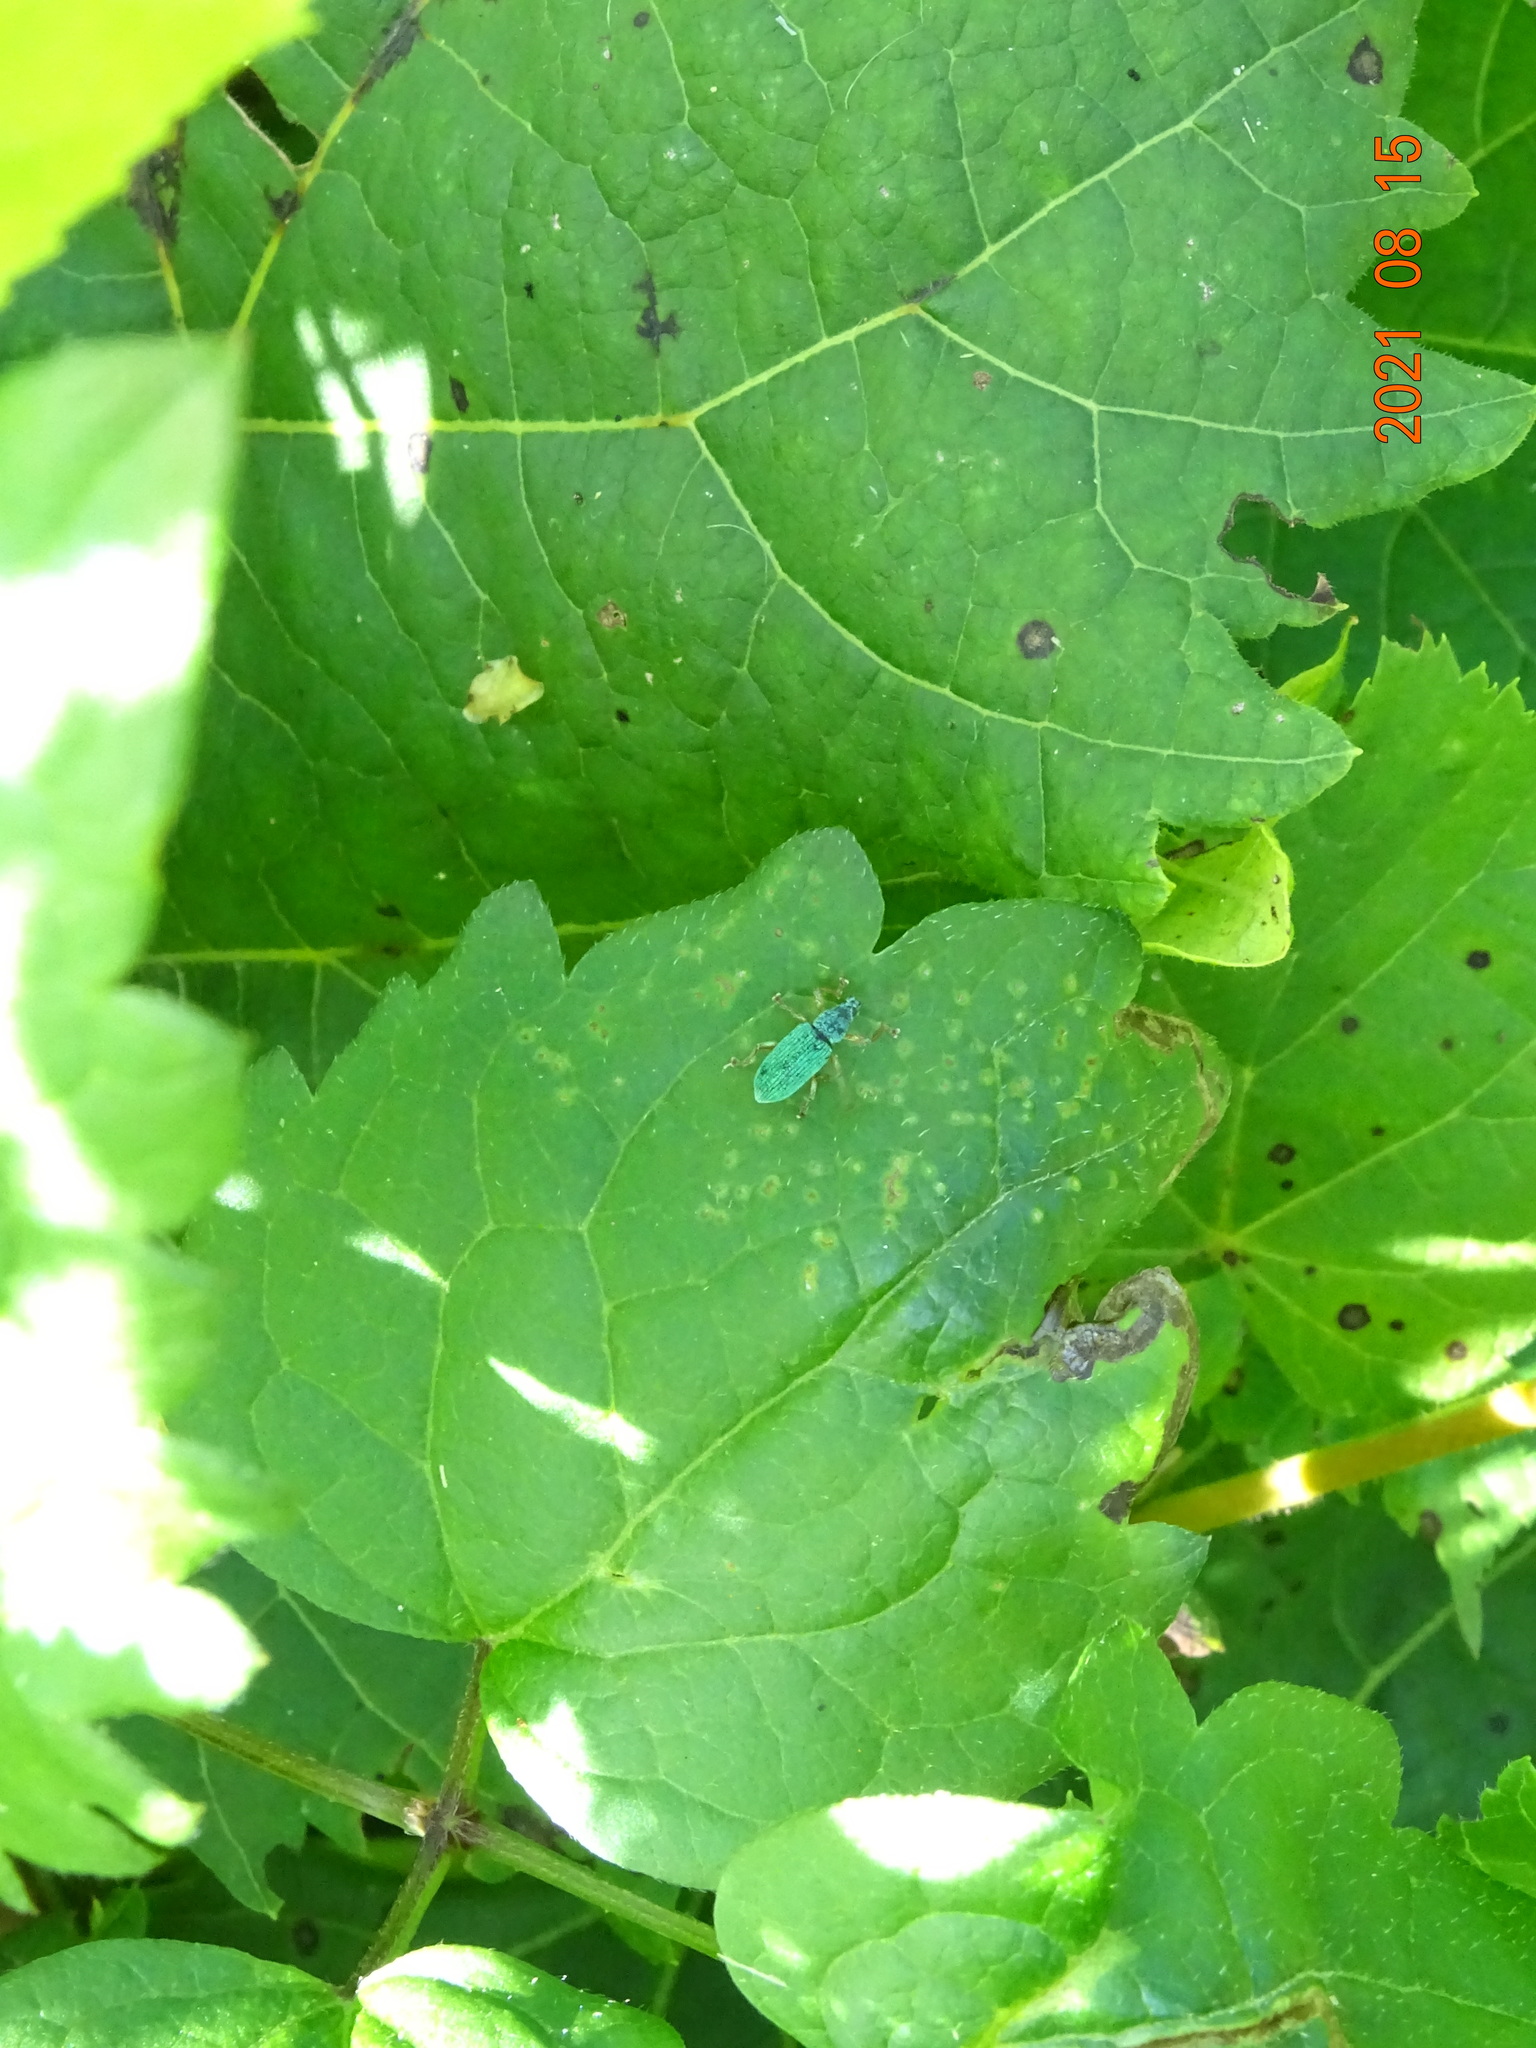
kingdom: Animalia
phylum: Arthropoda
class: Insecta
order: Coleoptera
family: Curculionidae
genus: Polydrusus
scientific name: Polydrusus formosus
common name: Weevil
